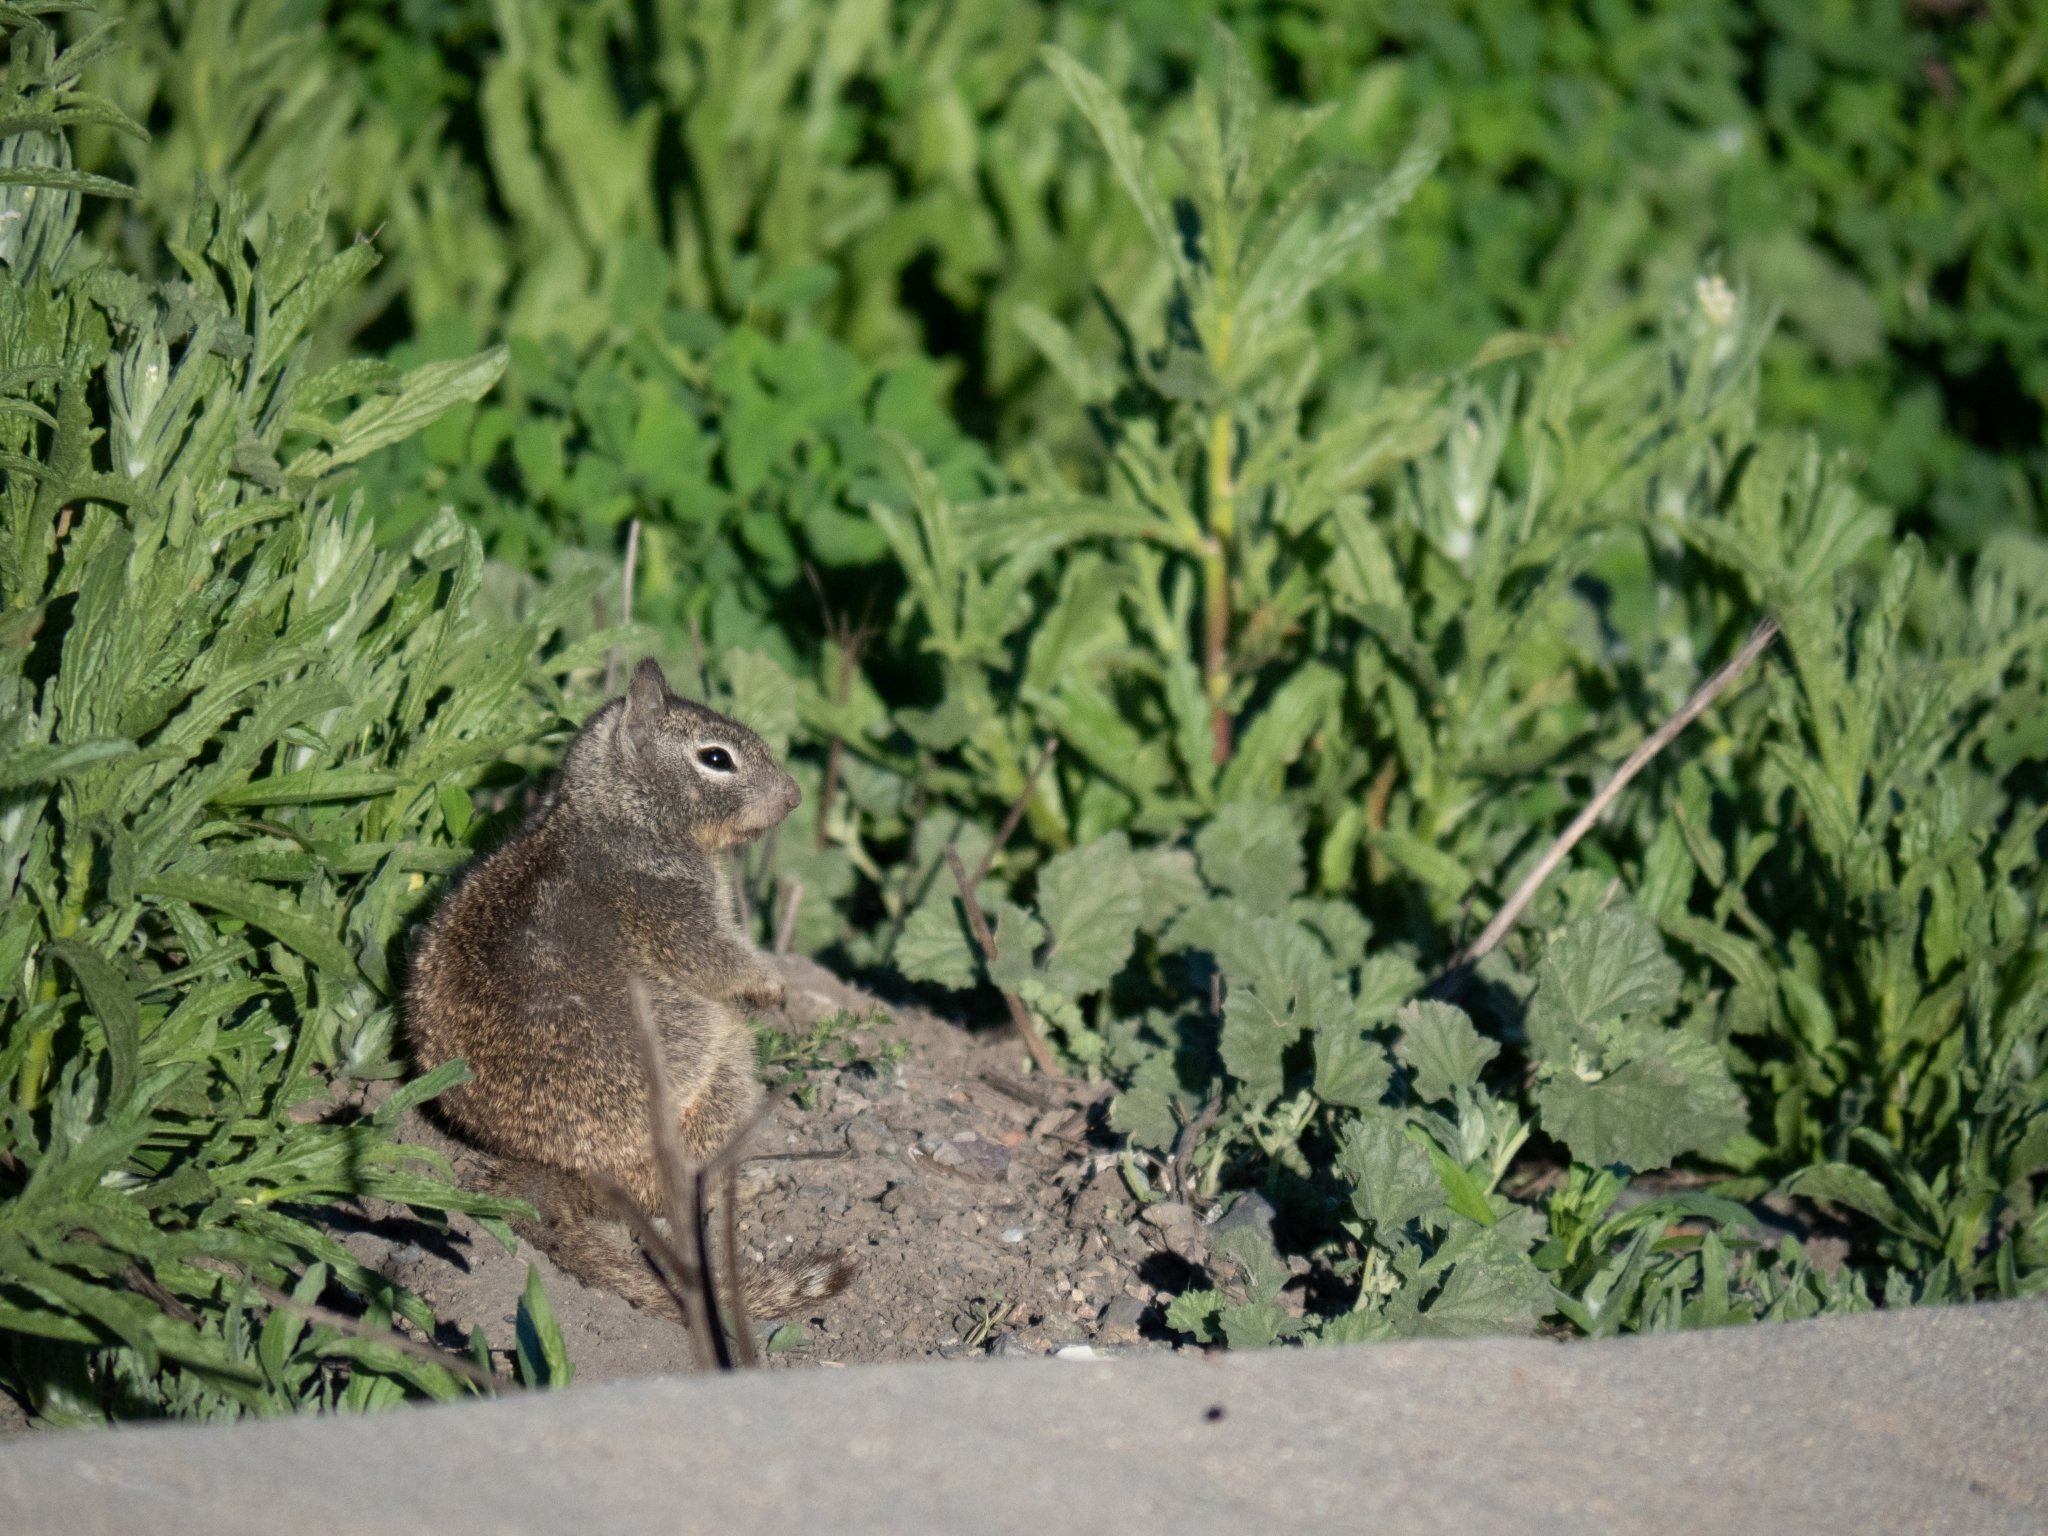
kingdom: Animalia
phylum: Chordata
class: Mammalia
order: Rodentia
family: Sciuridae
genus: Otospermophilus
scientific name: Otospermophilus beecheyi
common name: California ground squirrel
